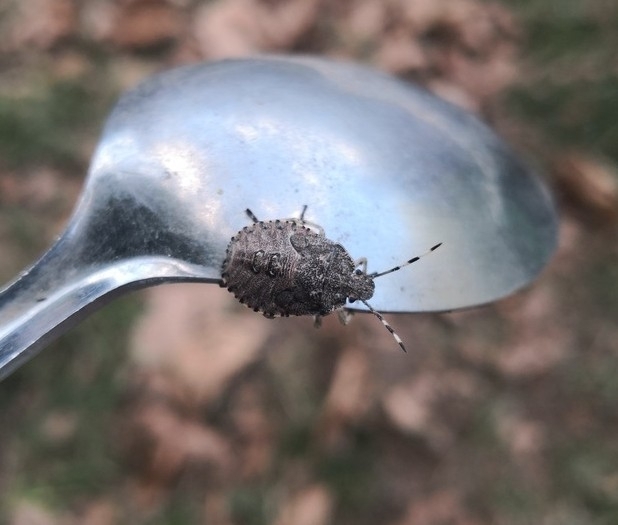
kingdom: Animalia
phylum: Arthropoda
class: Insecta
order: Hemiptera
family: Pentatomidae
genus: Rhaphigaster
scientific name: Rhaphigaster nebulosa
